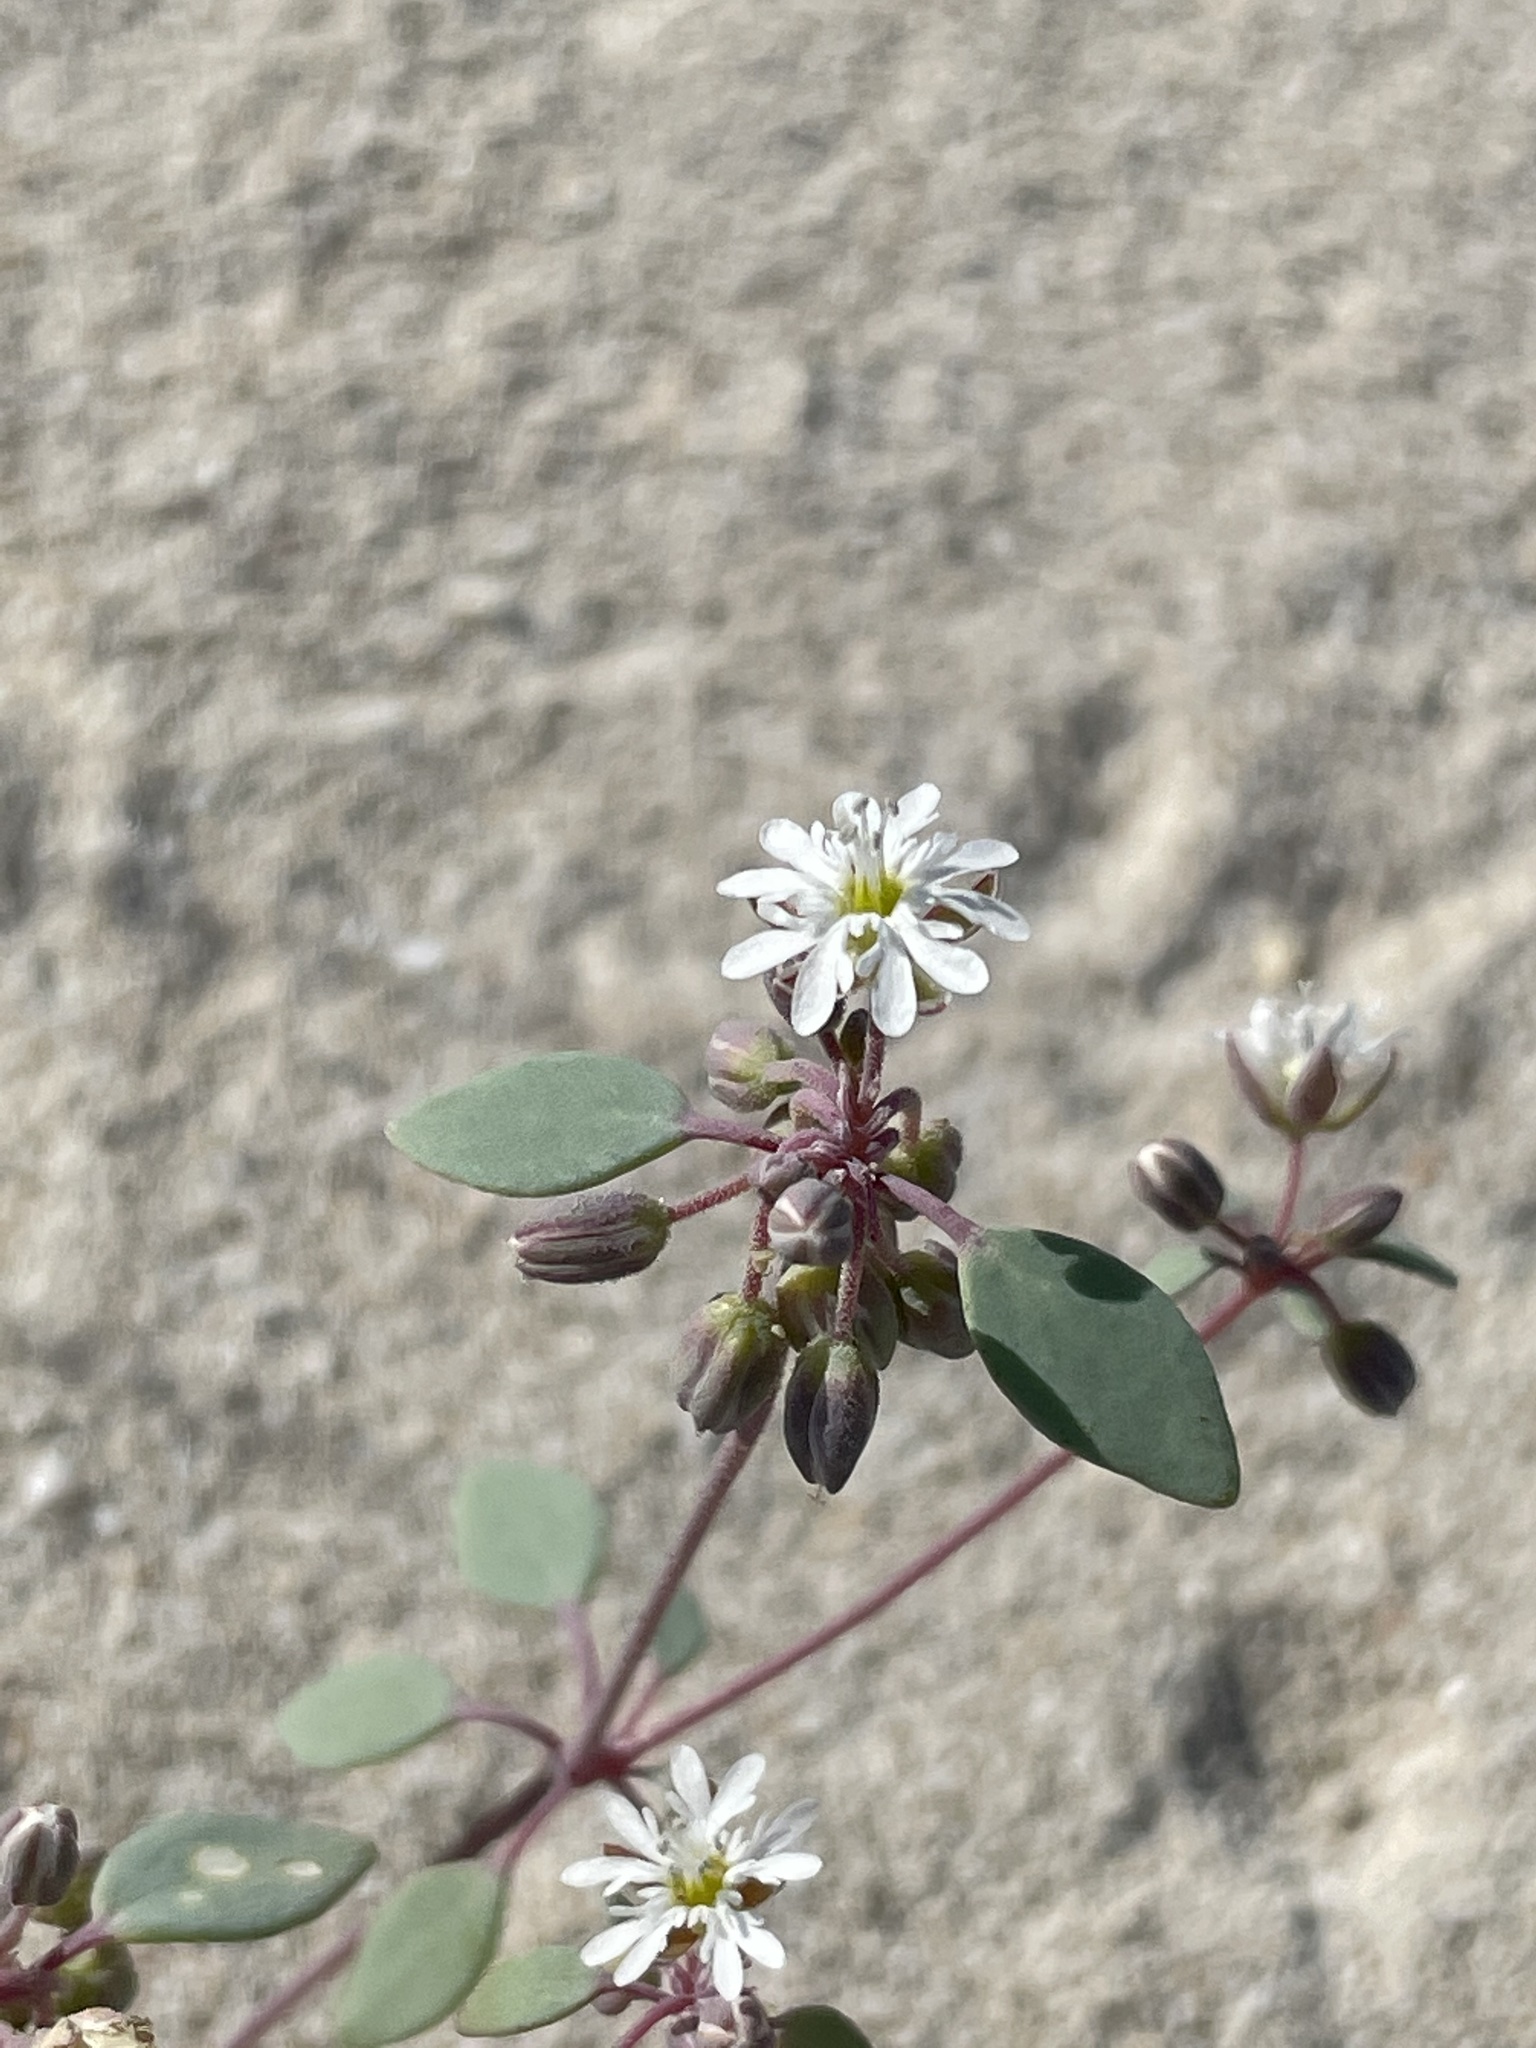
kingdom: Plantae
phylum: Tracheophyta
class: Magnoliopsida
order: Caryophyllales
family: Caryophyllaceae
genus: Drymaria
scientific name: Drymaria holosteoides
